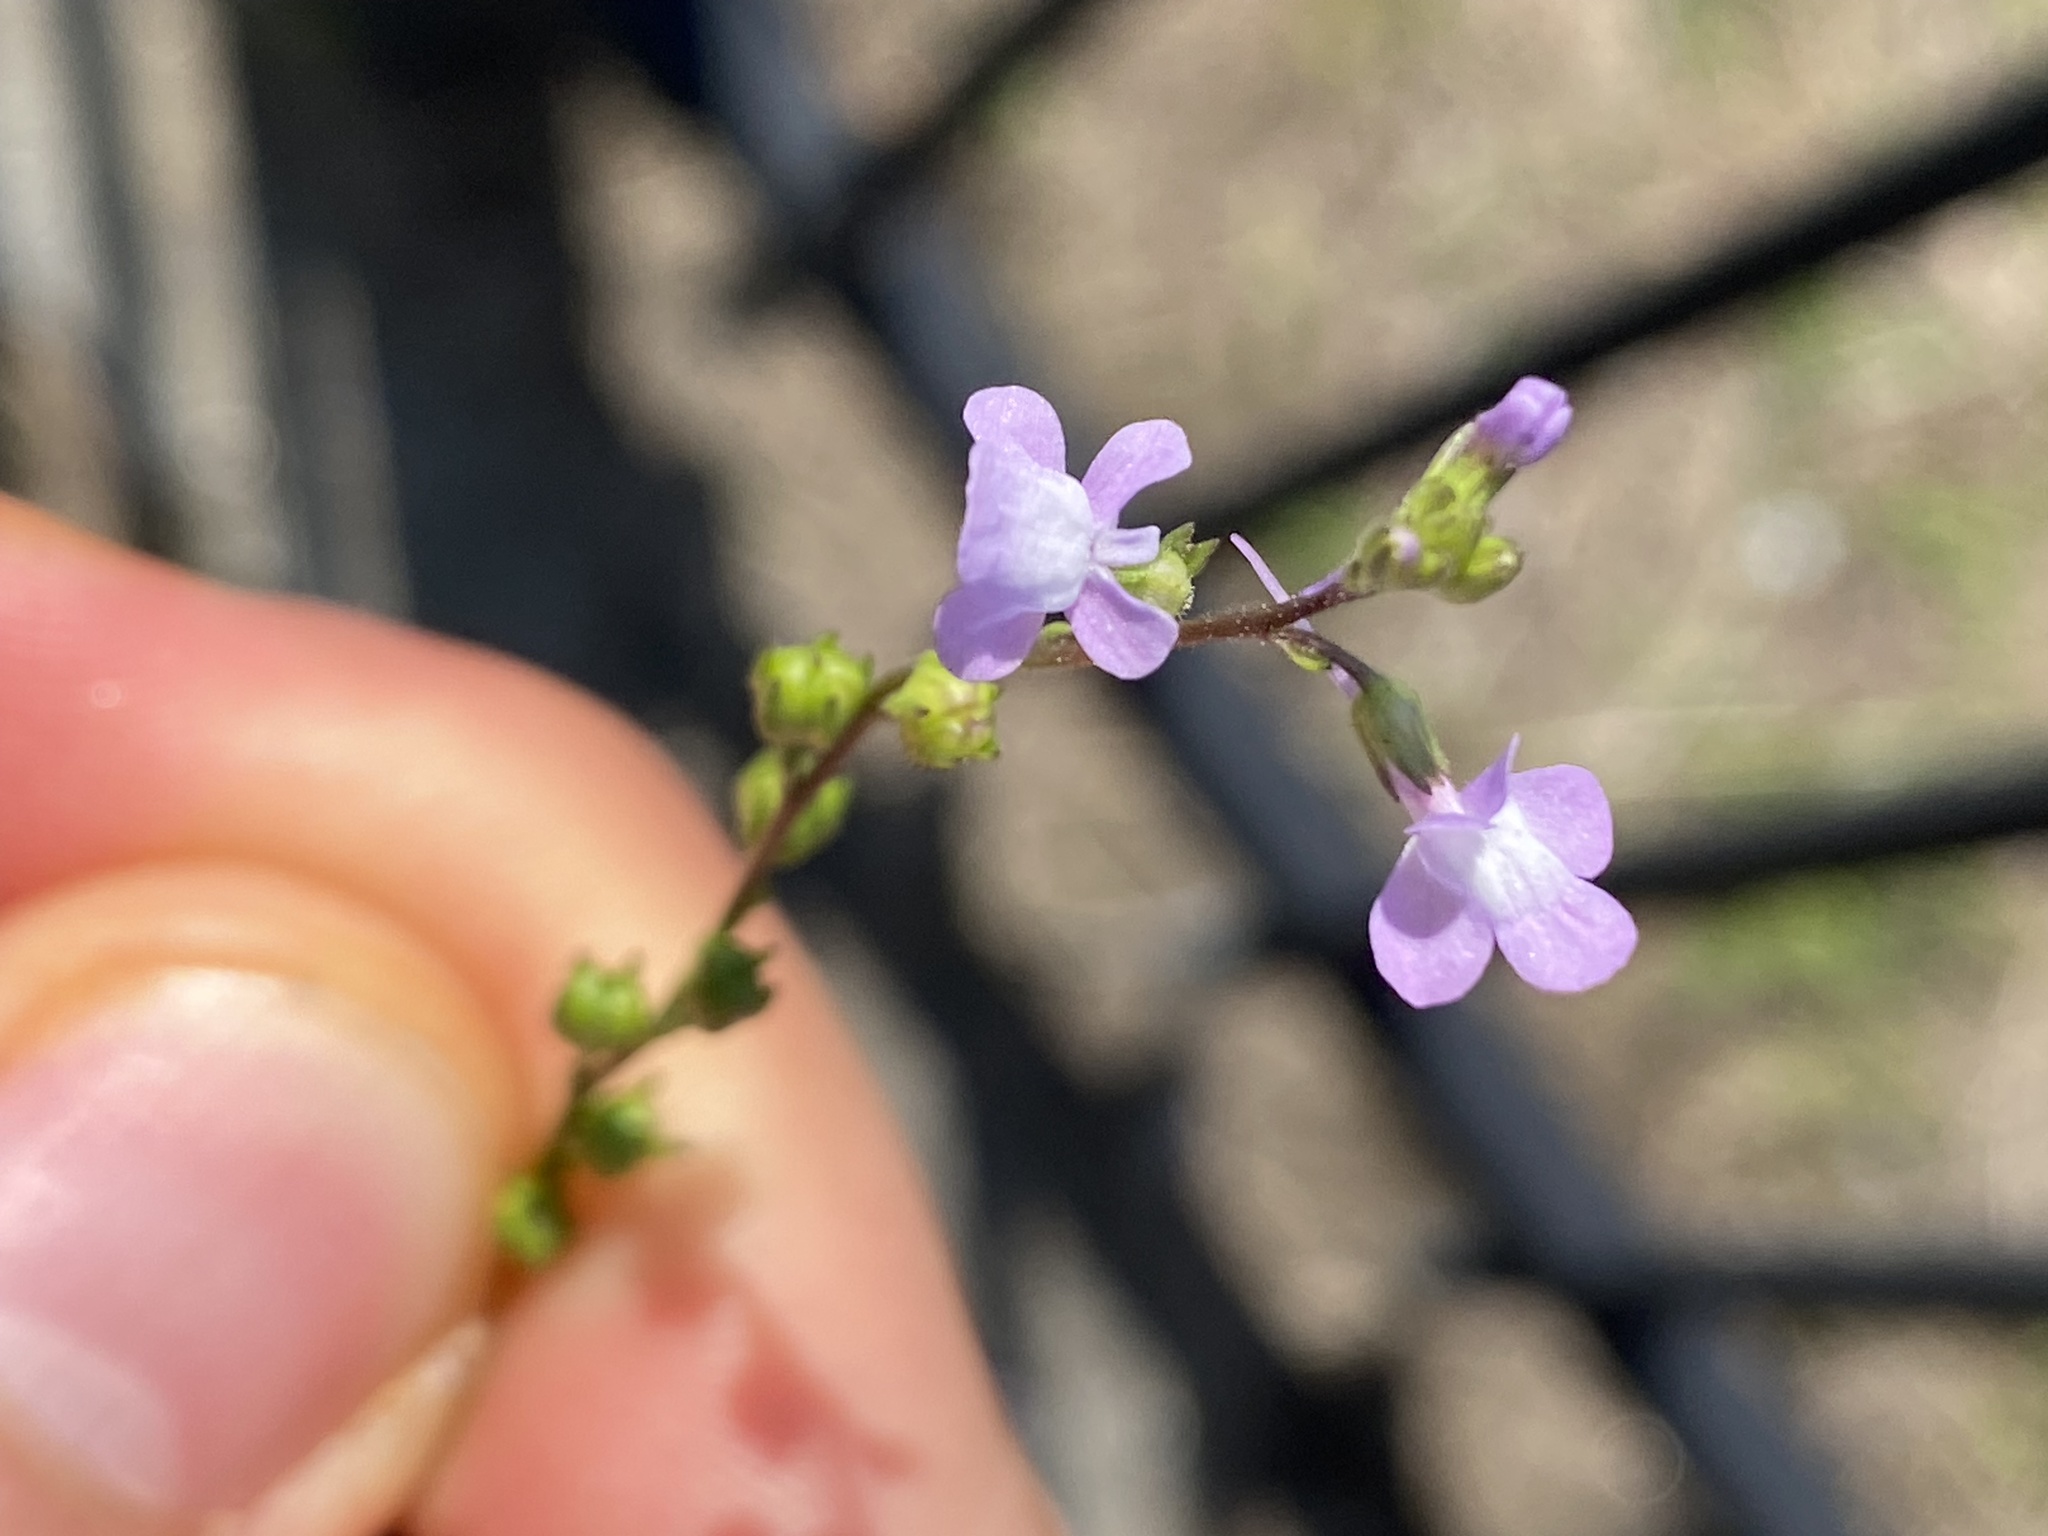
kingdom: Plantae
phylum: Tracheophyta
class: Magnoliopsida
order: Lamiales
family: Plantaginaceae
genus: Nuttallanthus
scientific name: Nuttallanthus canadensis
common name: Blue toadflax
